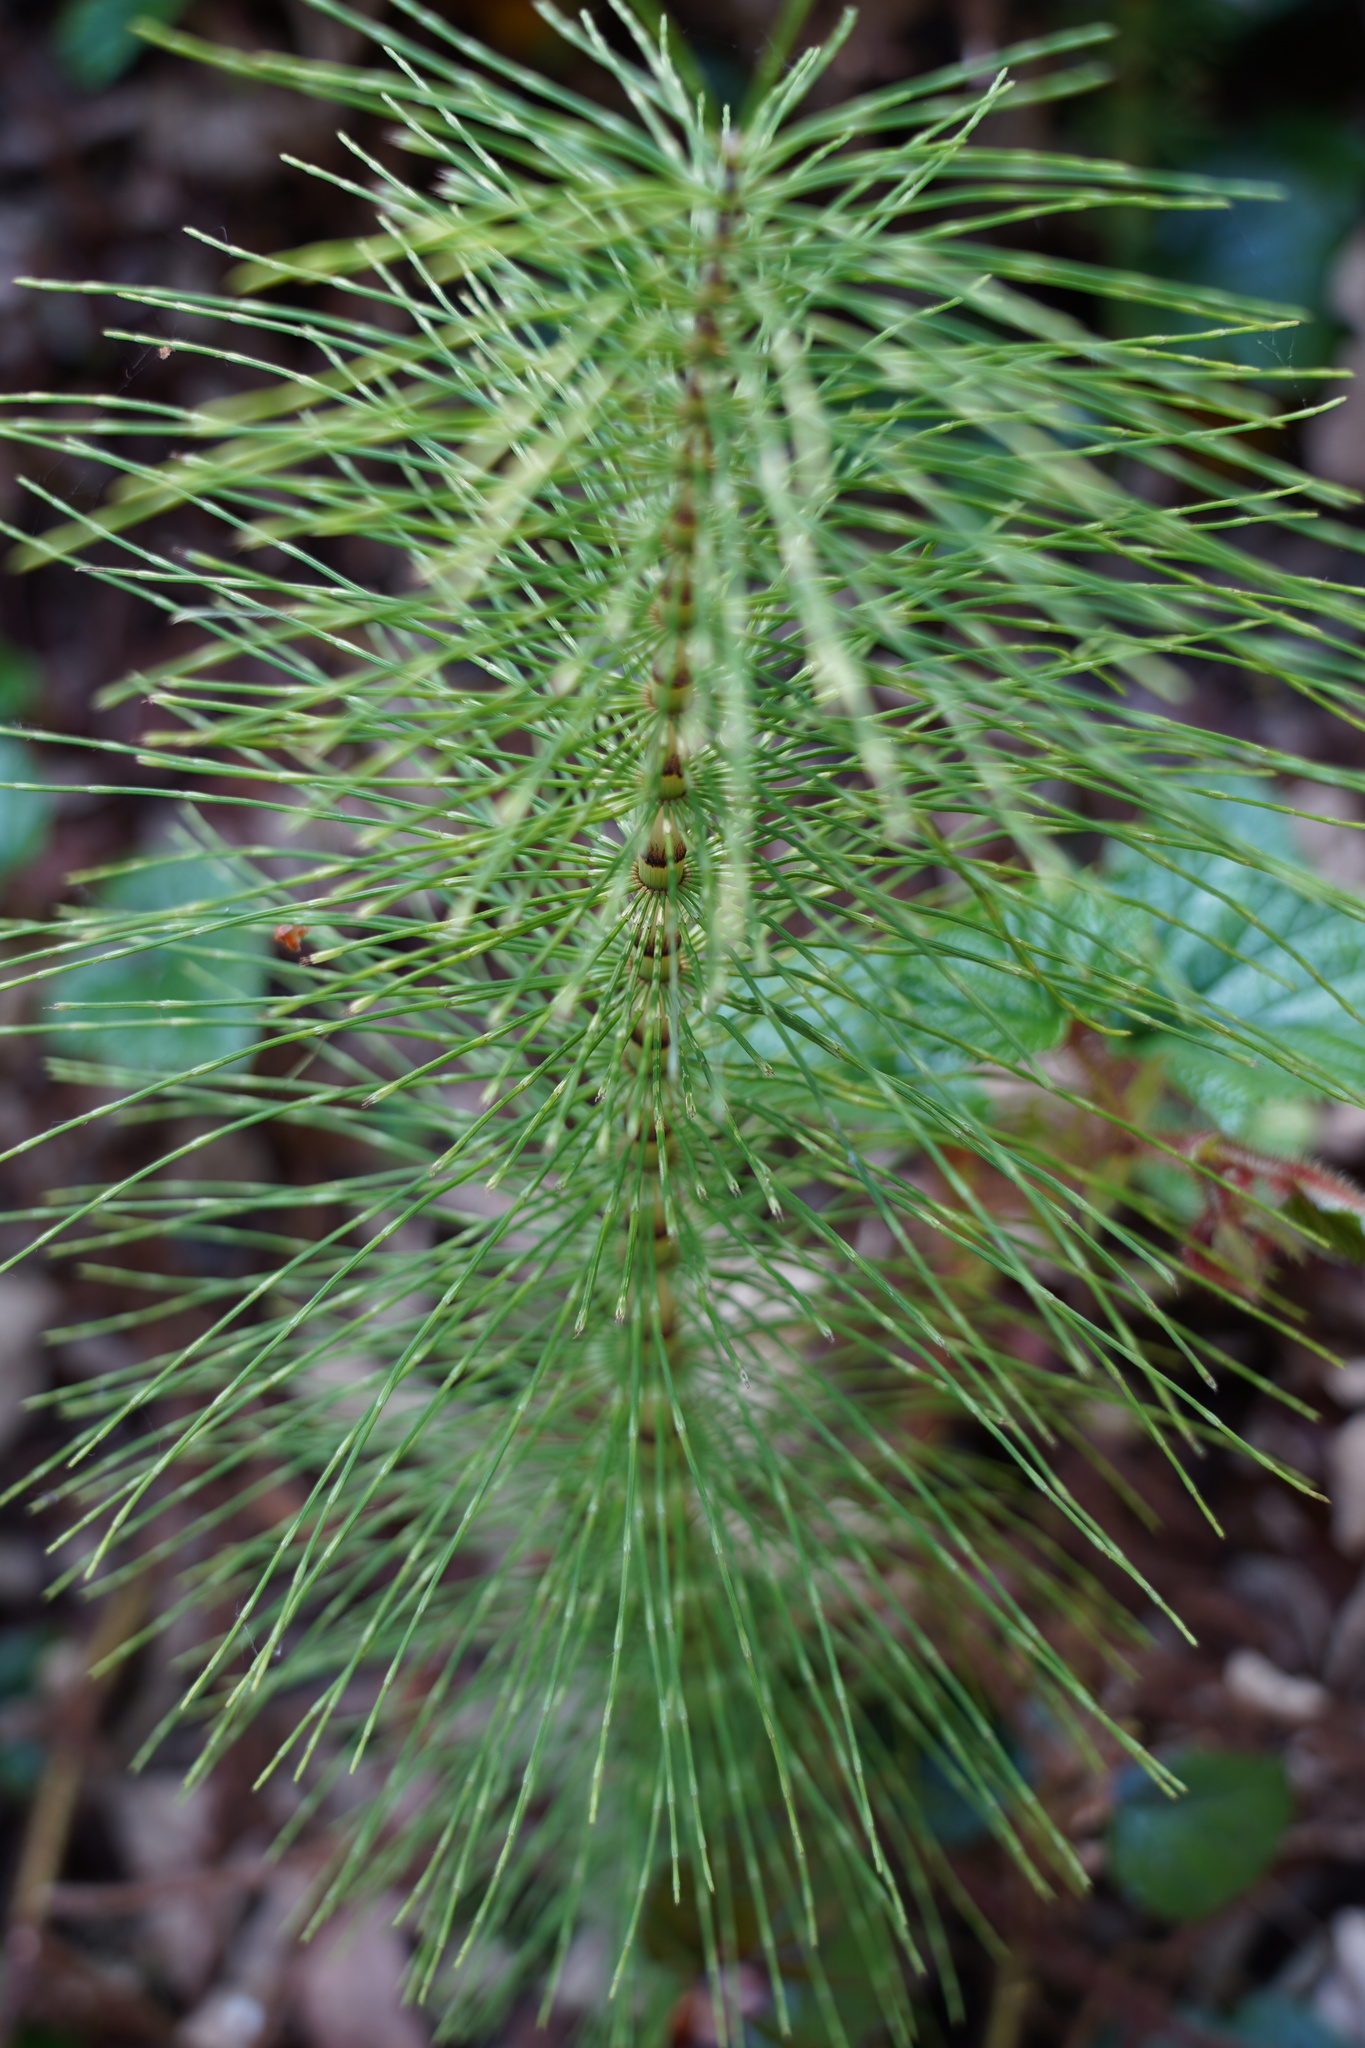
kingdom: Plantae
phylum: Tracheophyta
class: Polypodiopsida
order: Equisetales
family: Equisetaceae
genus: Equisetum
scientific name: Equisetum telmateia
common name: Great horsetail
